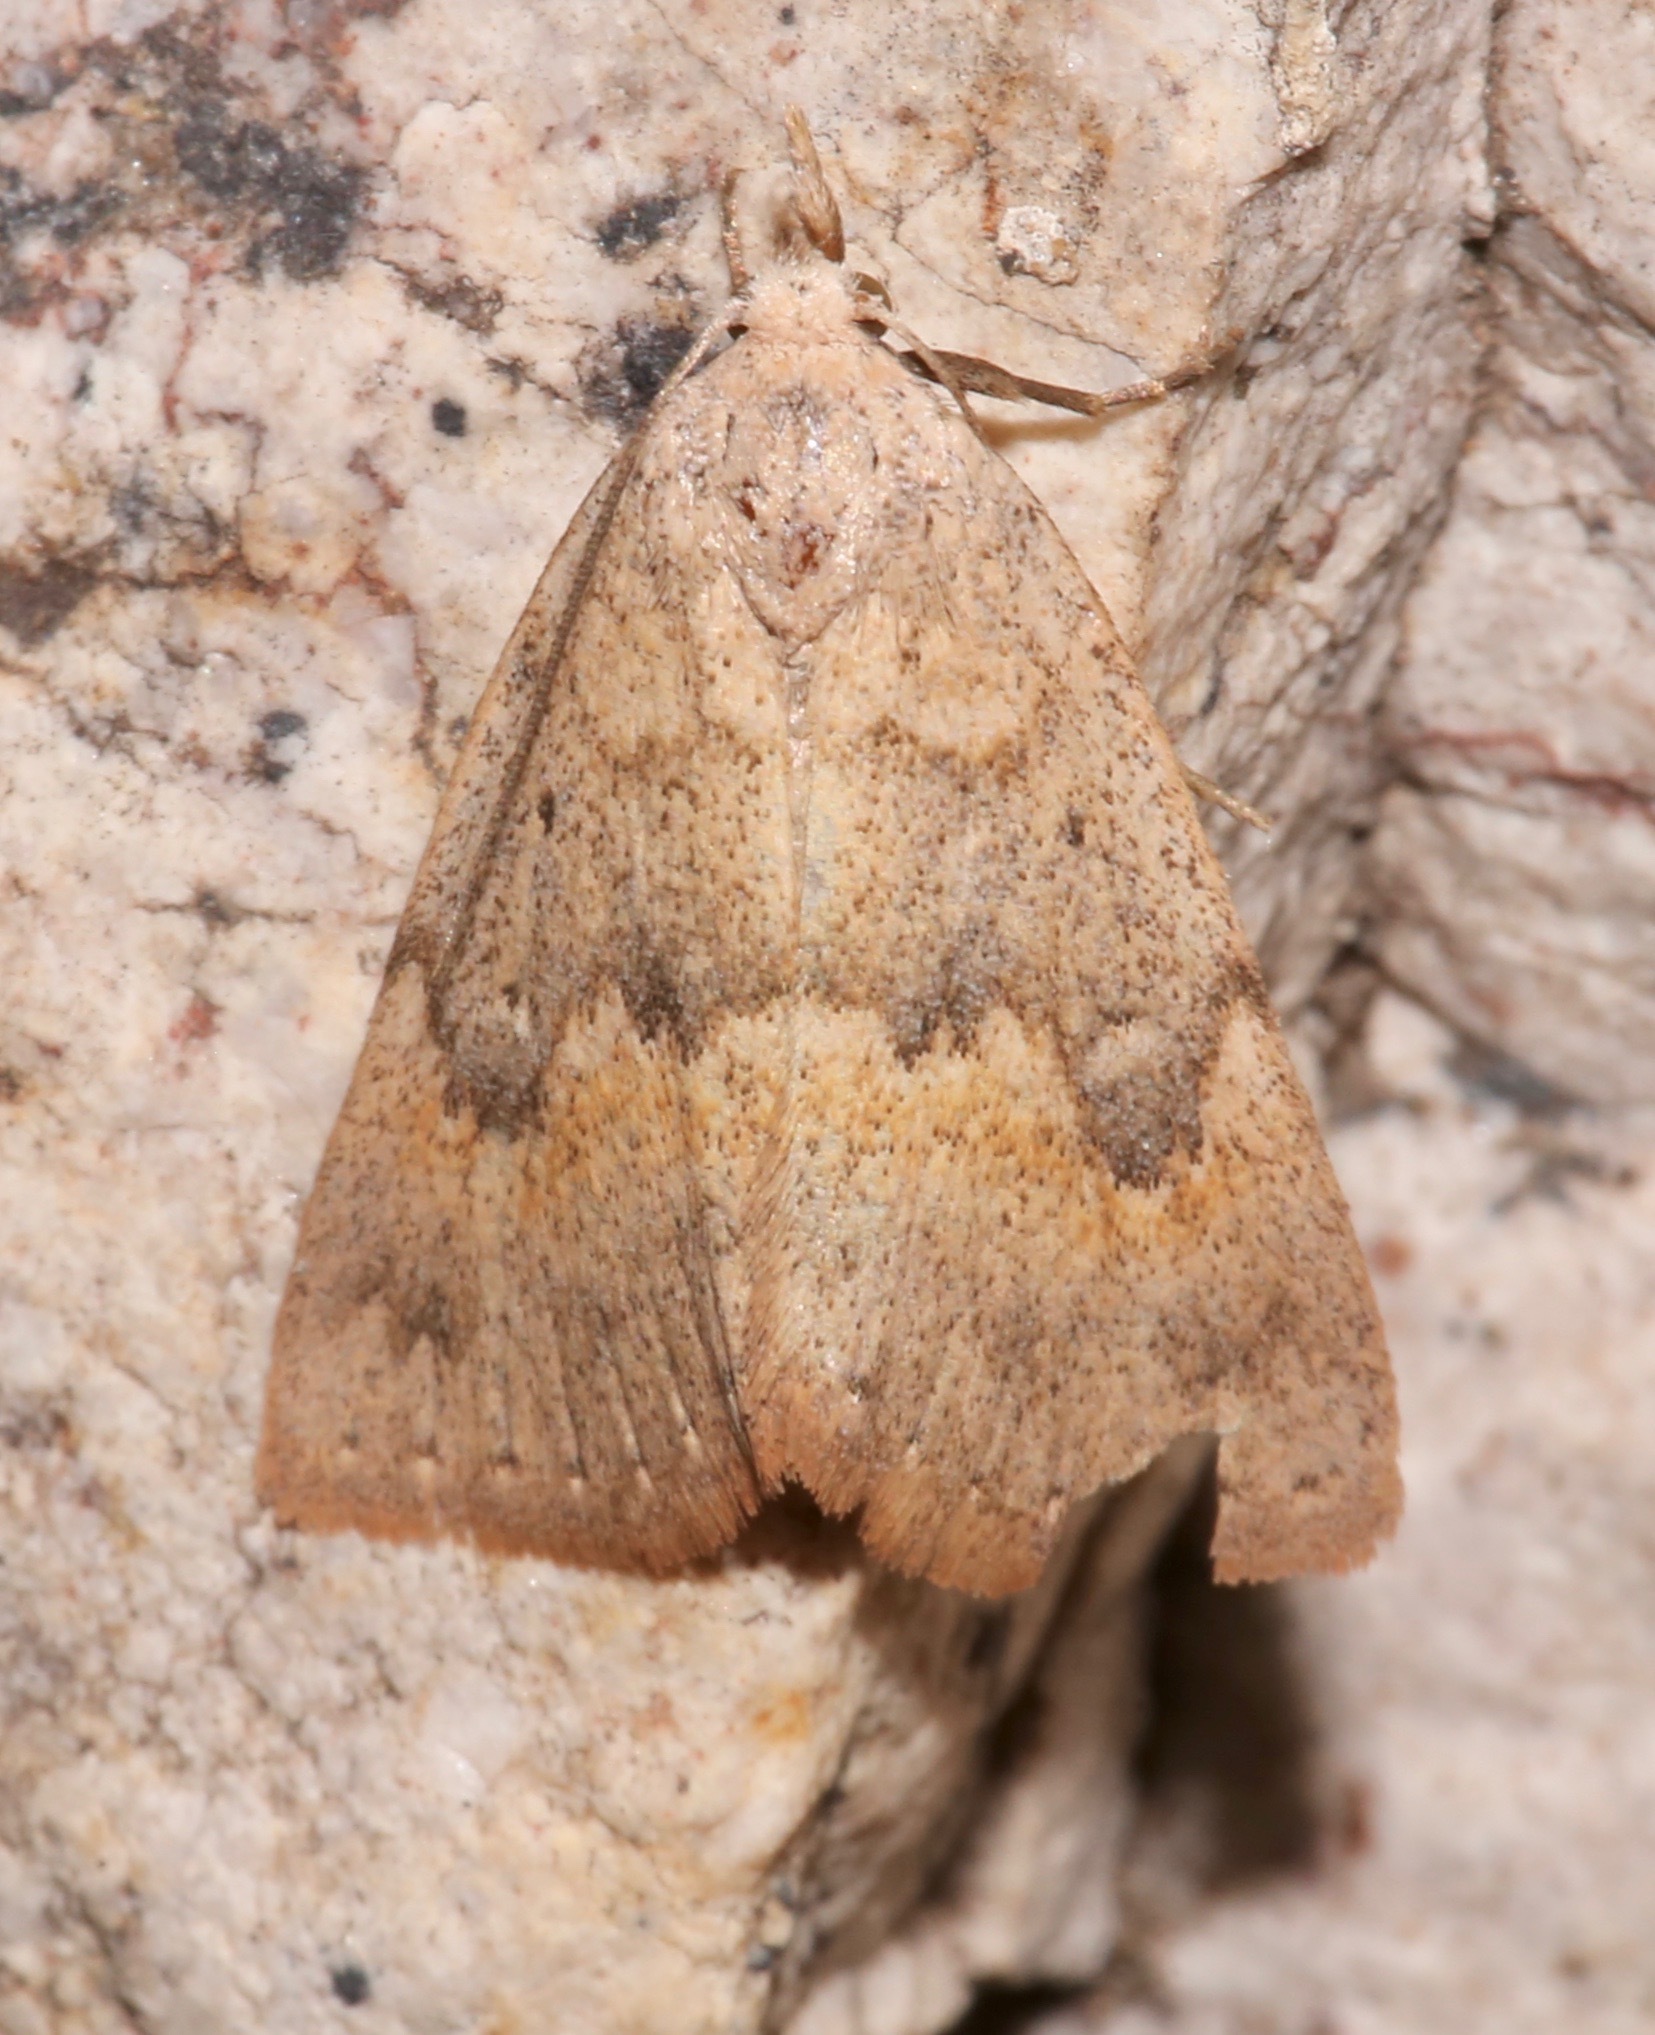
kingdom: Animalia
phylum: Arthropoda
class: Insecta
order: Lepidoptera
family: Erebidae
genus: Pseudorgyia
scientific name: Pseudorgyia russula
